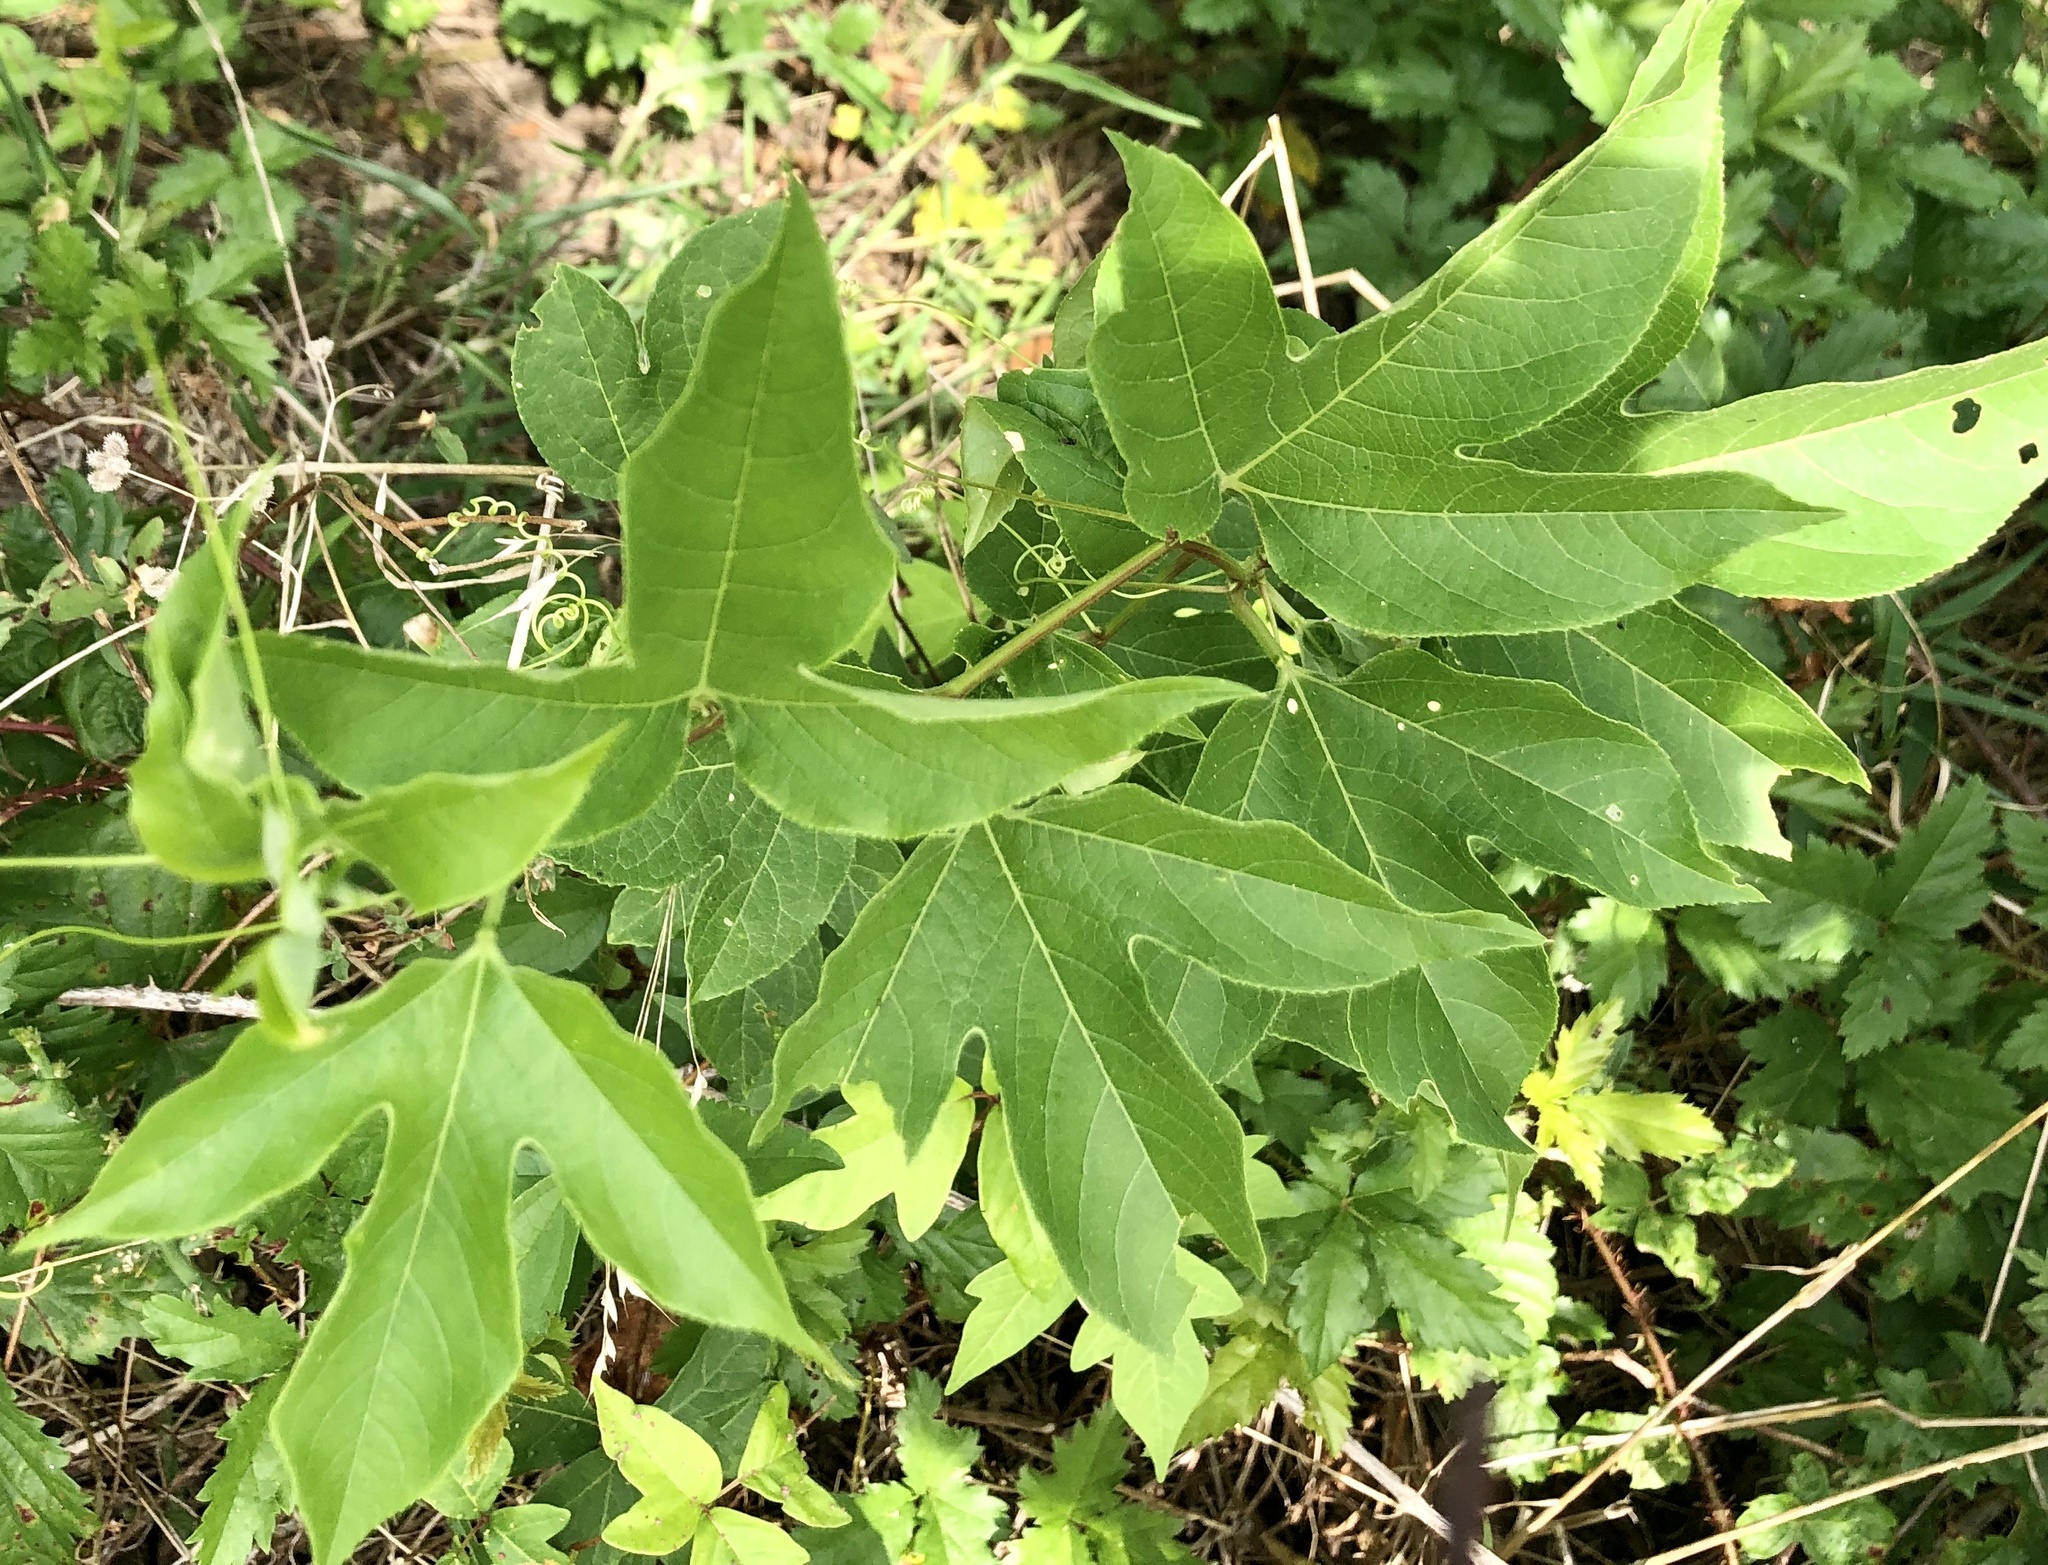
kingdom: Plantae
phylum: Tracheophyta
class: Magnoliopsida
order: Malpighiales
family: Passifloraceae
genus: Passiflora
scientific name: Passiflora incarnata
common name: Apricot-vine
